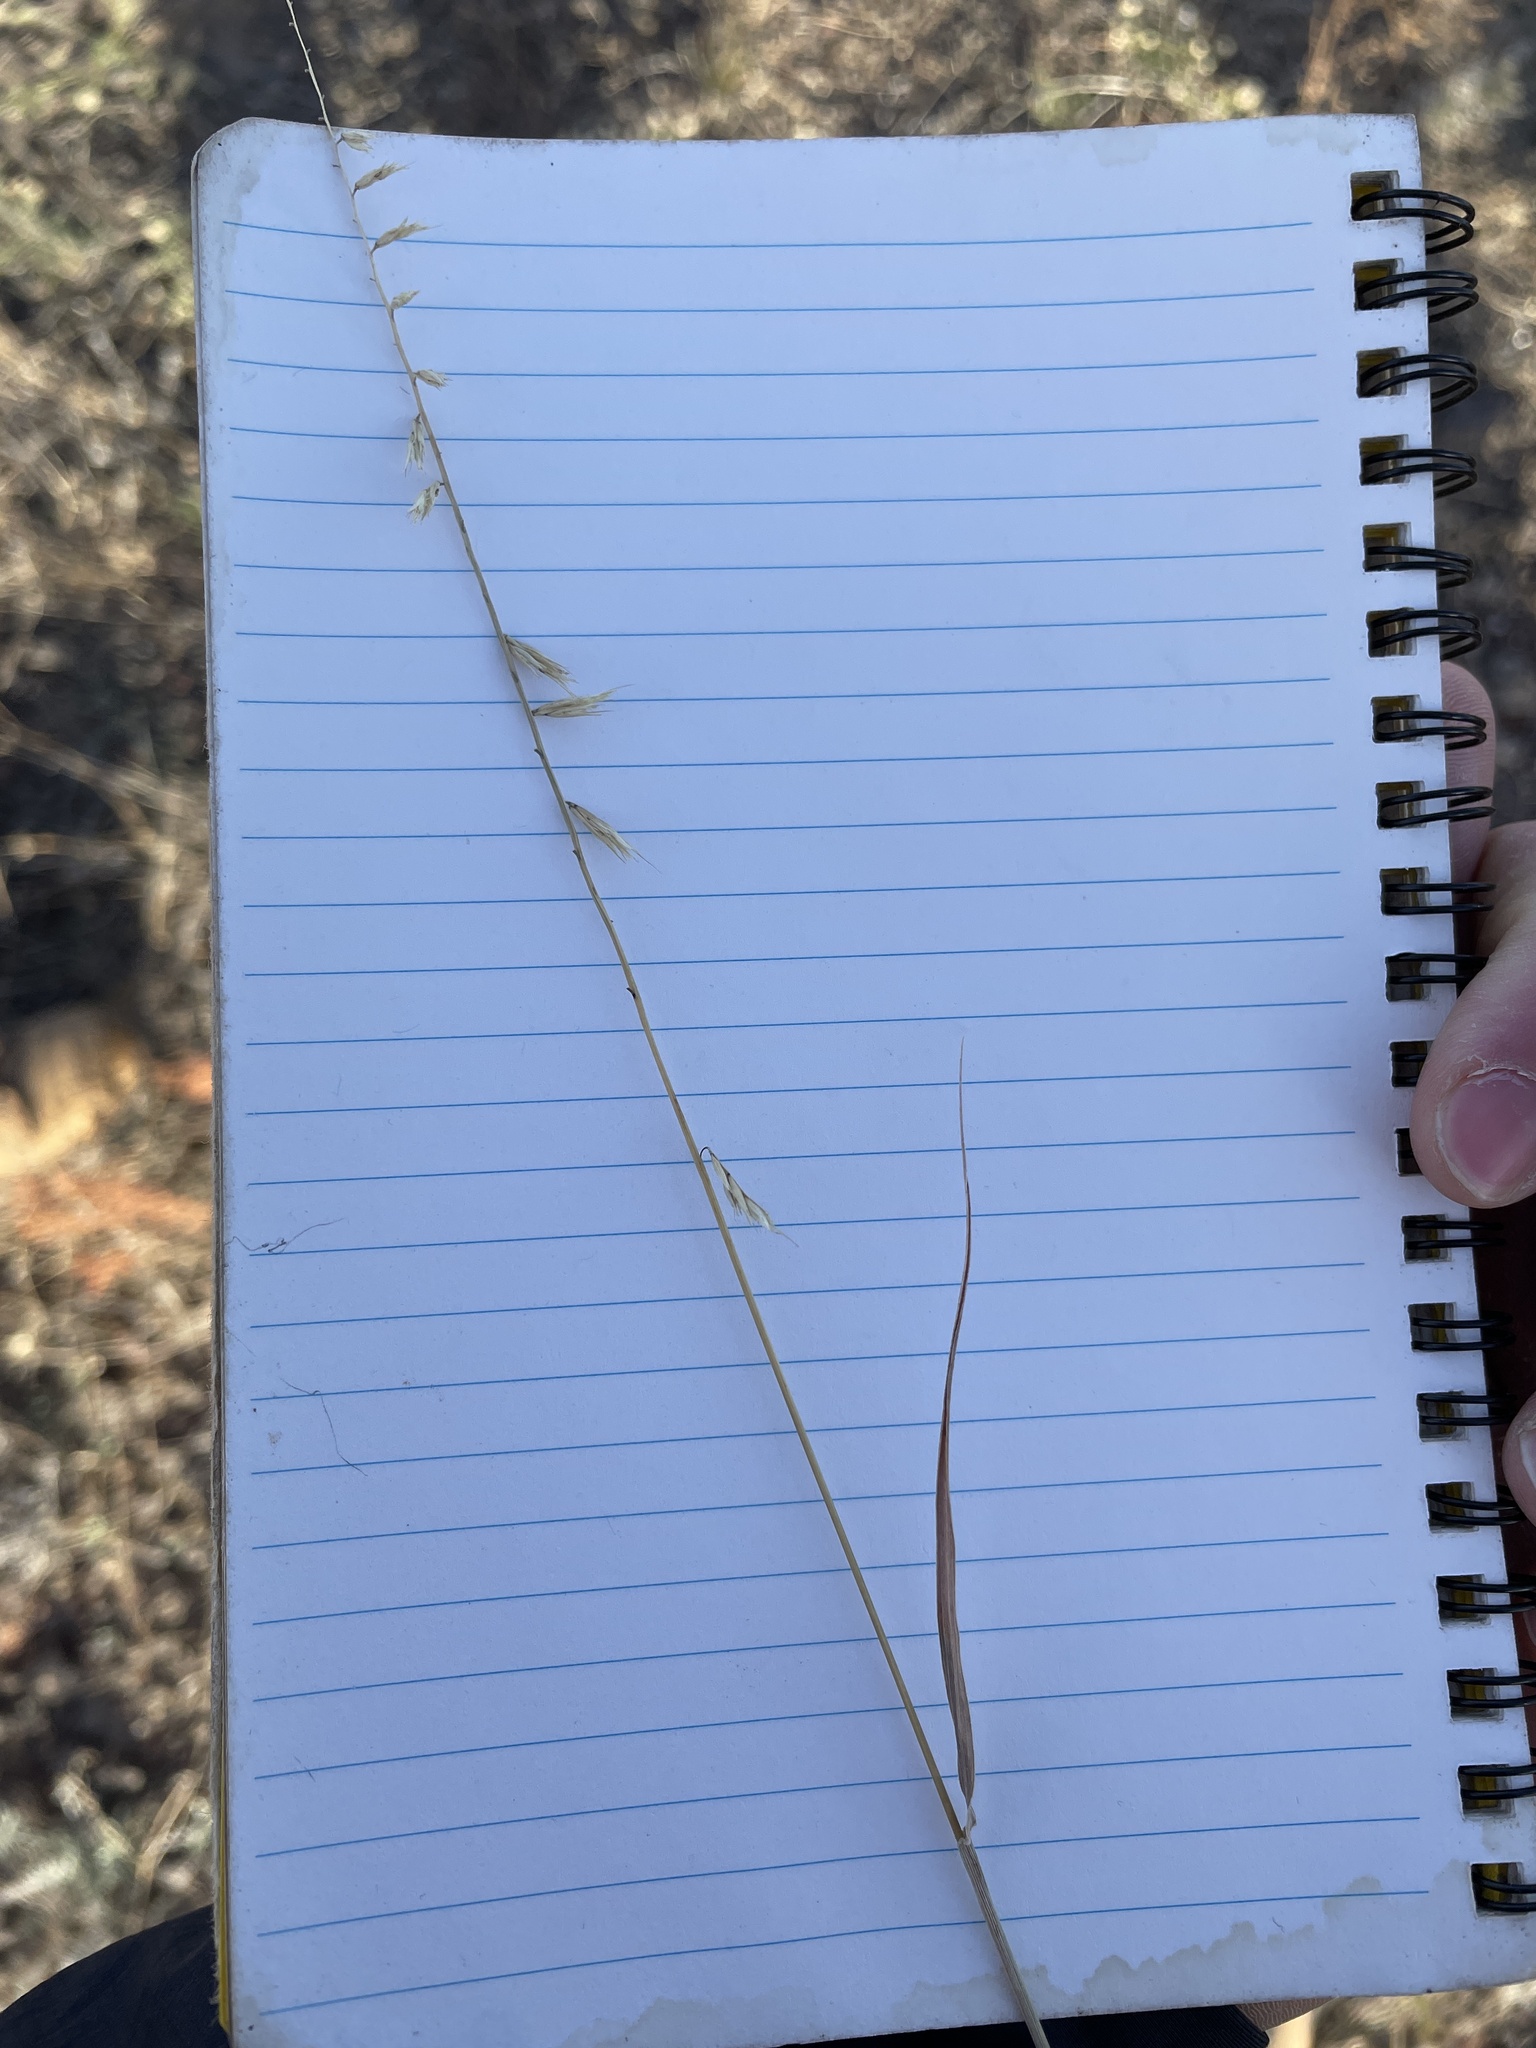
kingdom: Plantae
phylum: Tracheophyta
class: Liliopsida
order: Poales
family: Poaceae
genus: Bouteloua
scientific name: Bouteloua curtipendula
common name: Side-oats grama
